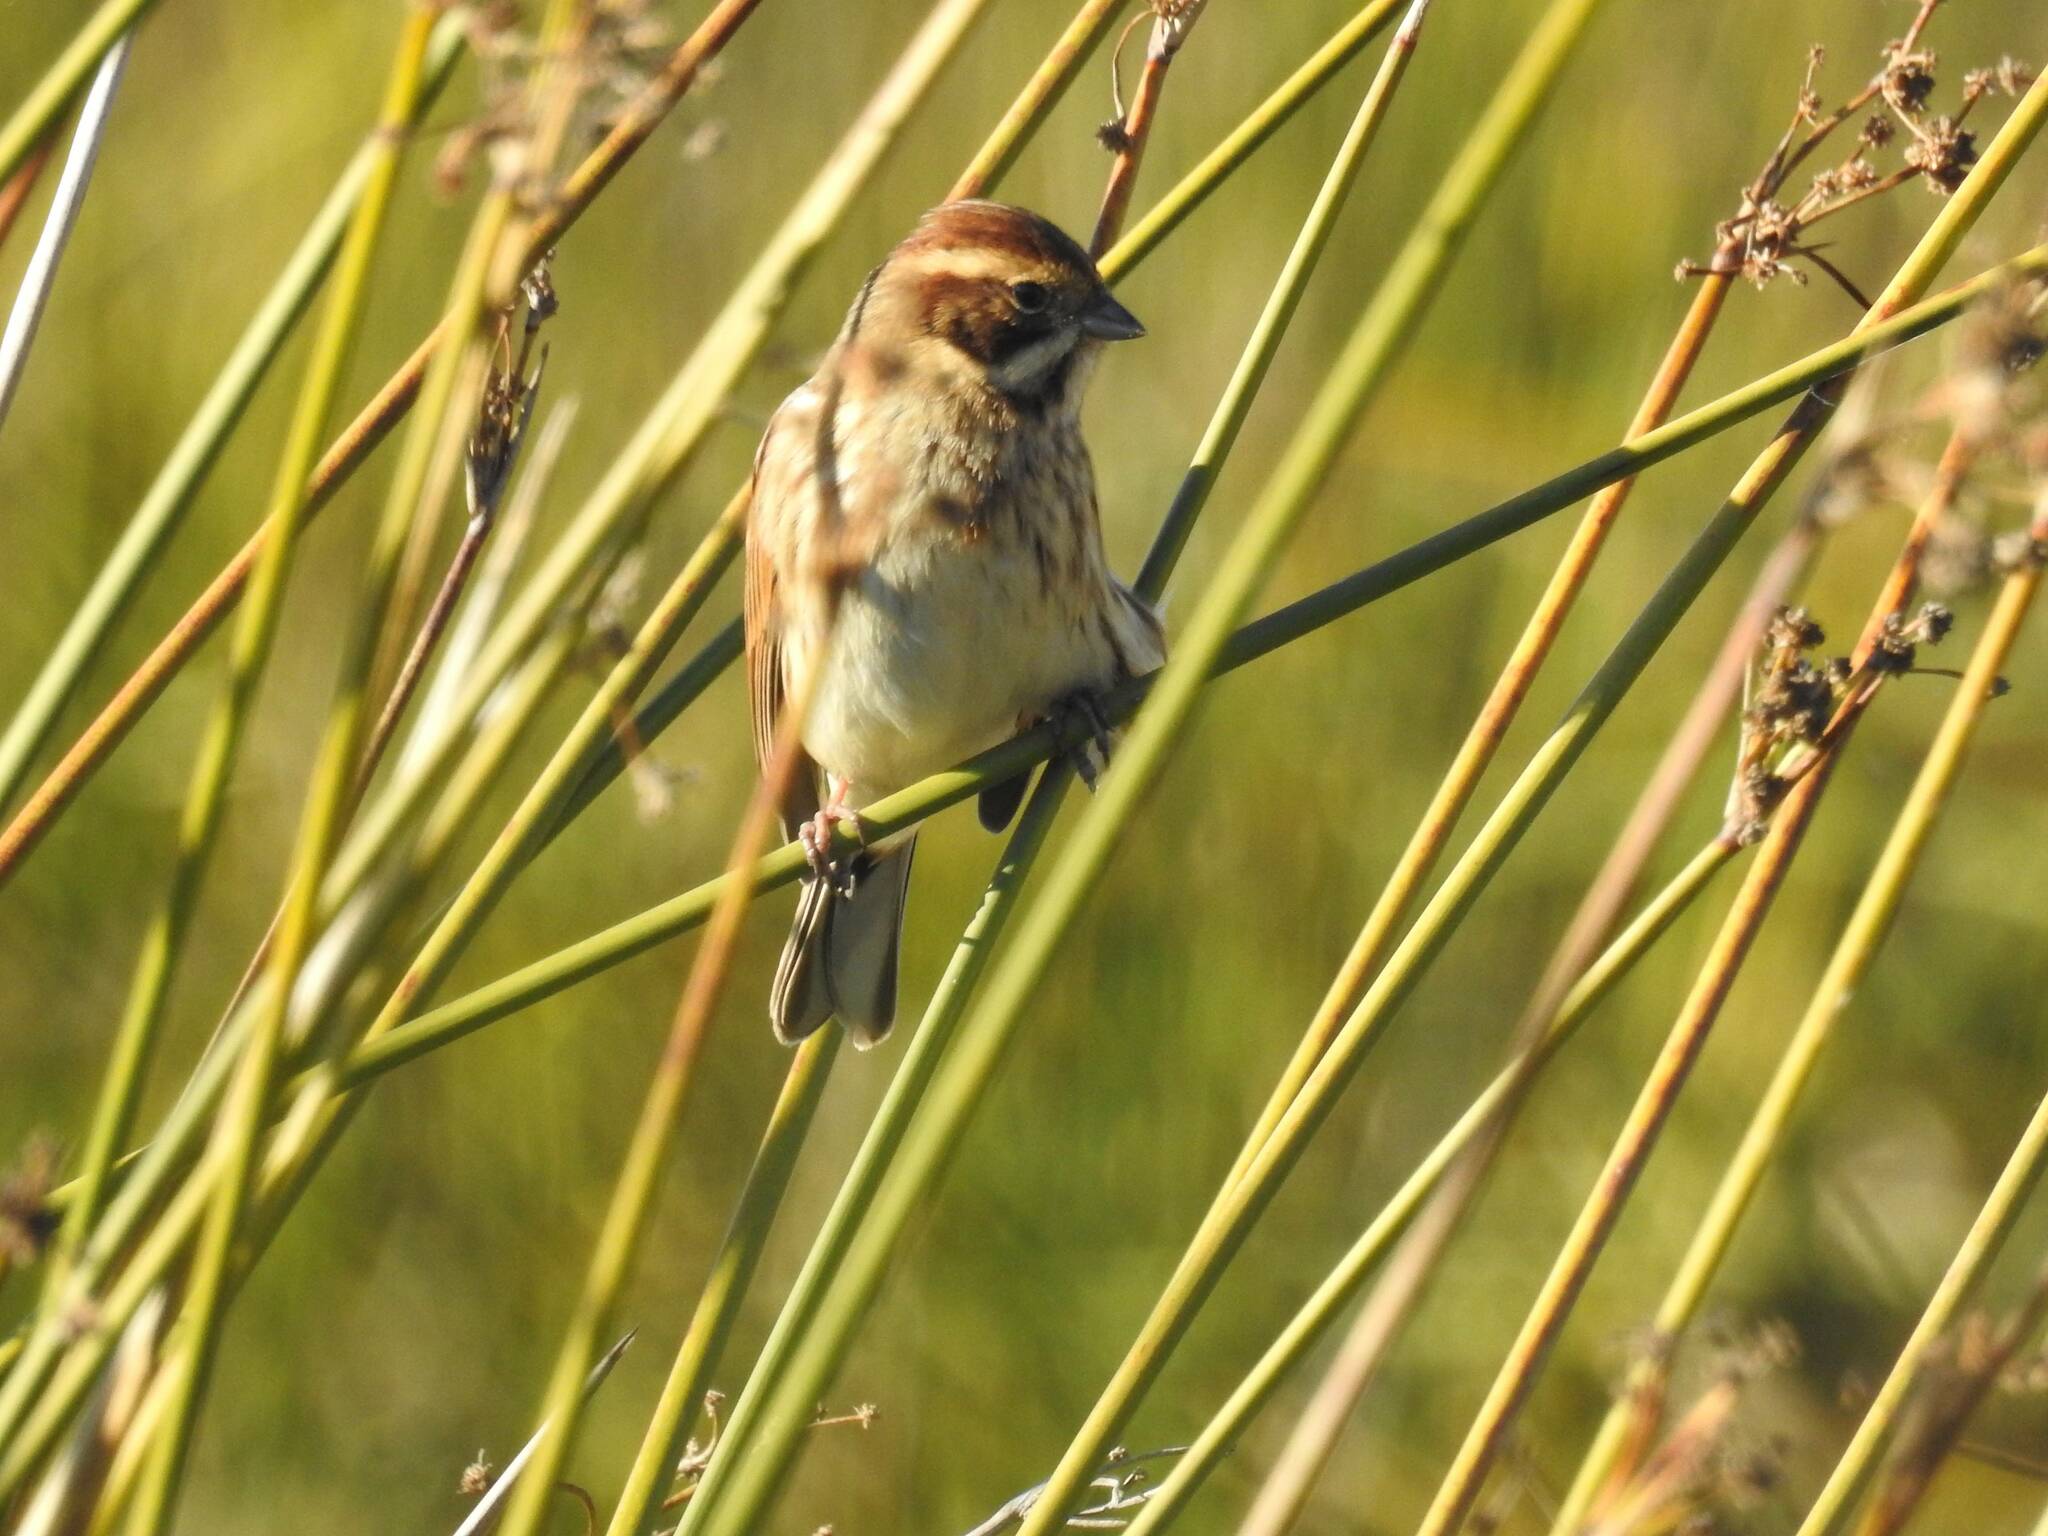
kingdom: Animalia
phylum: Chordata
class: Aves
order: Passeriformes
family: Emberizidae
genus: Emberiza
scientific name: Emberiza schoeniclus
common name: Reed bunting
